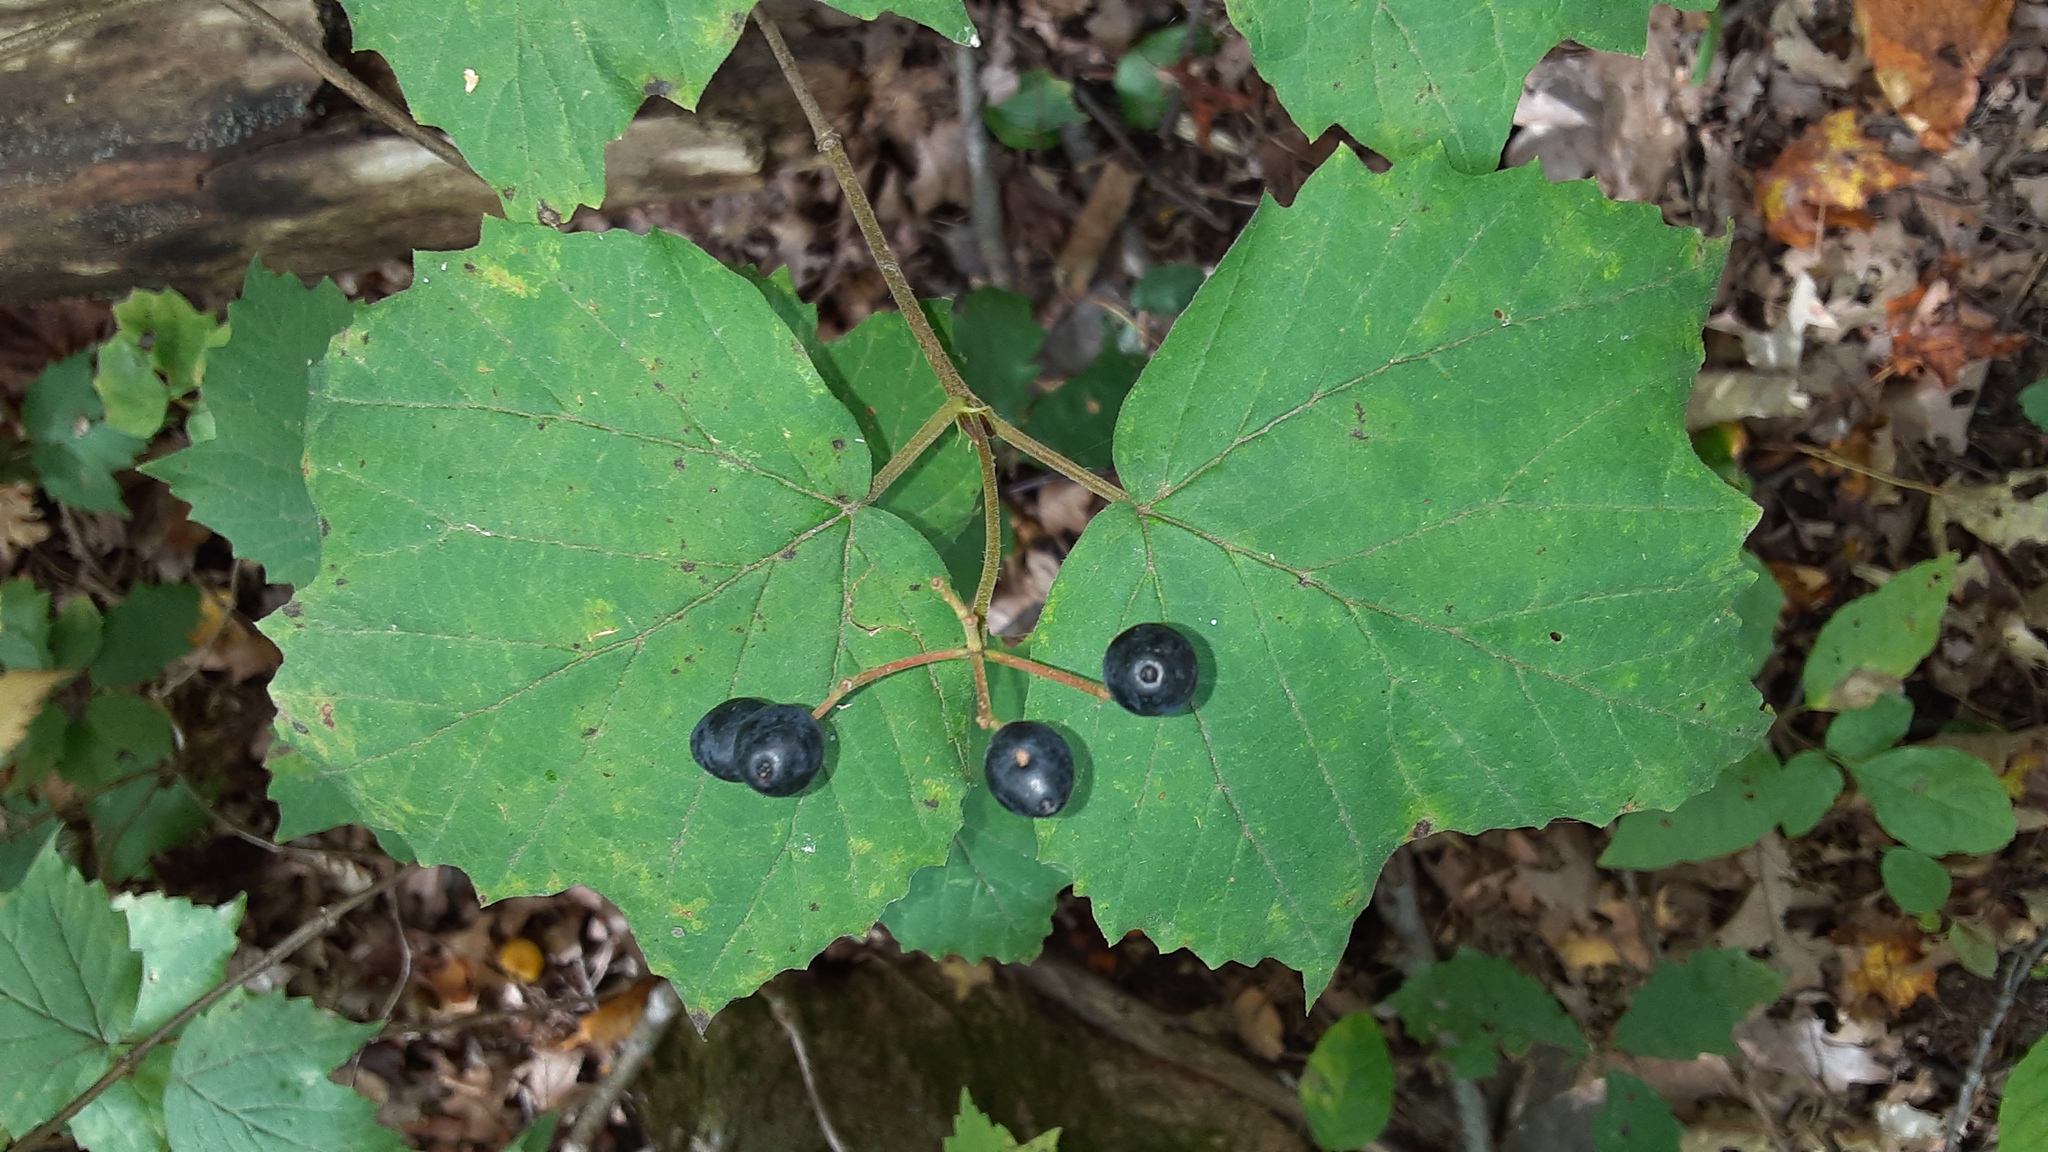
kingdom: Plantae
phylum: Tracheophyta
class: Magnoliopsida
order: Dipsacales
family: Viburnaceae
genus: Viburnum
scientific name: Viburnum acerifolium
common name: Dockmackie
